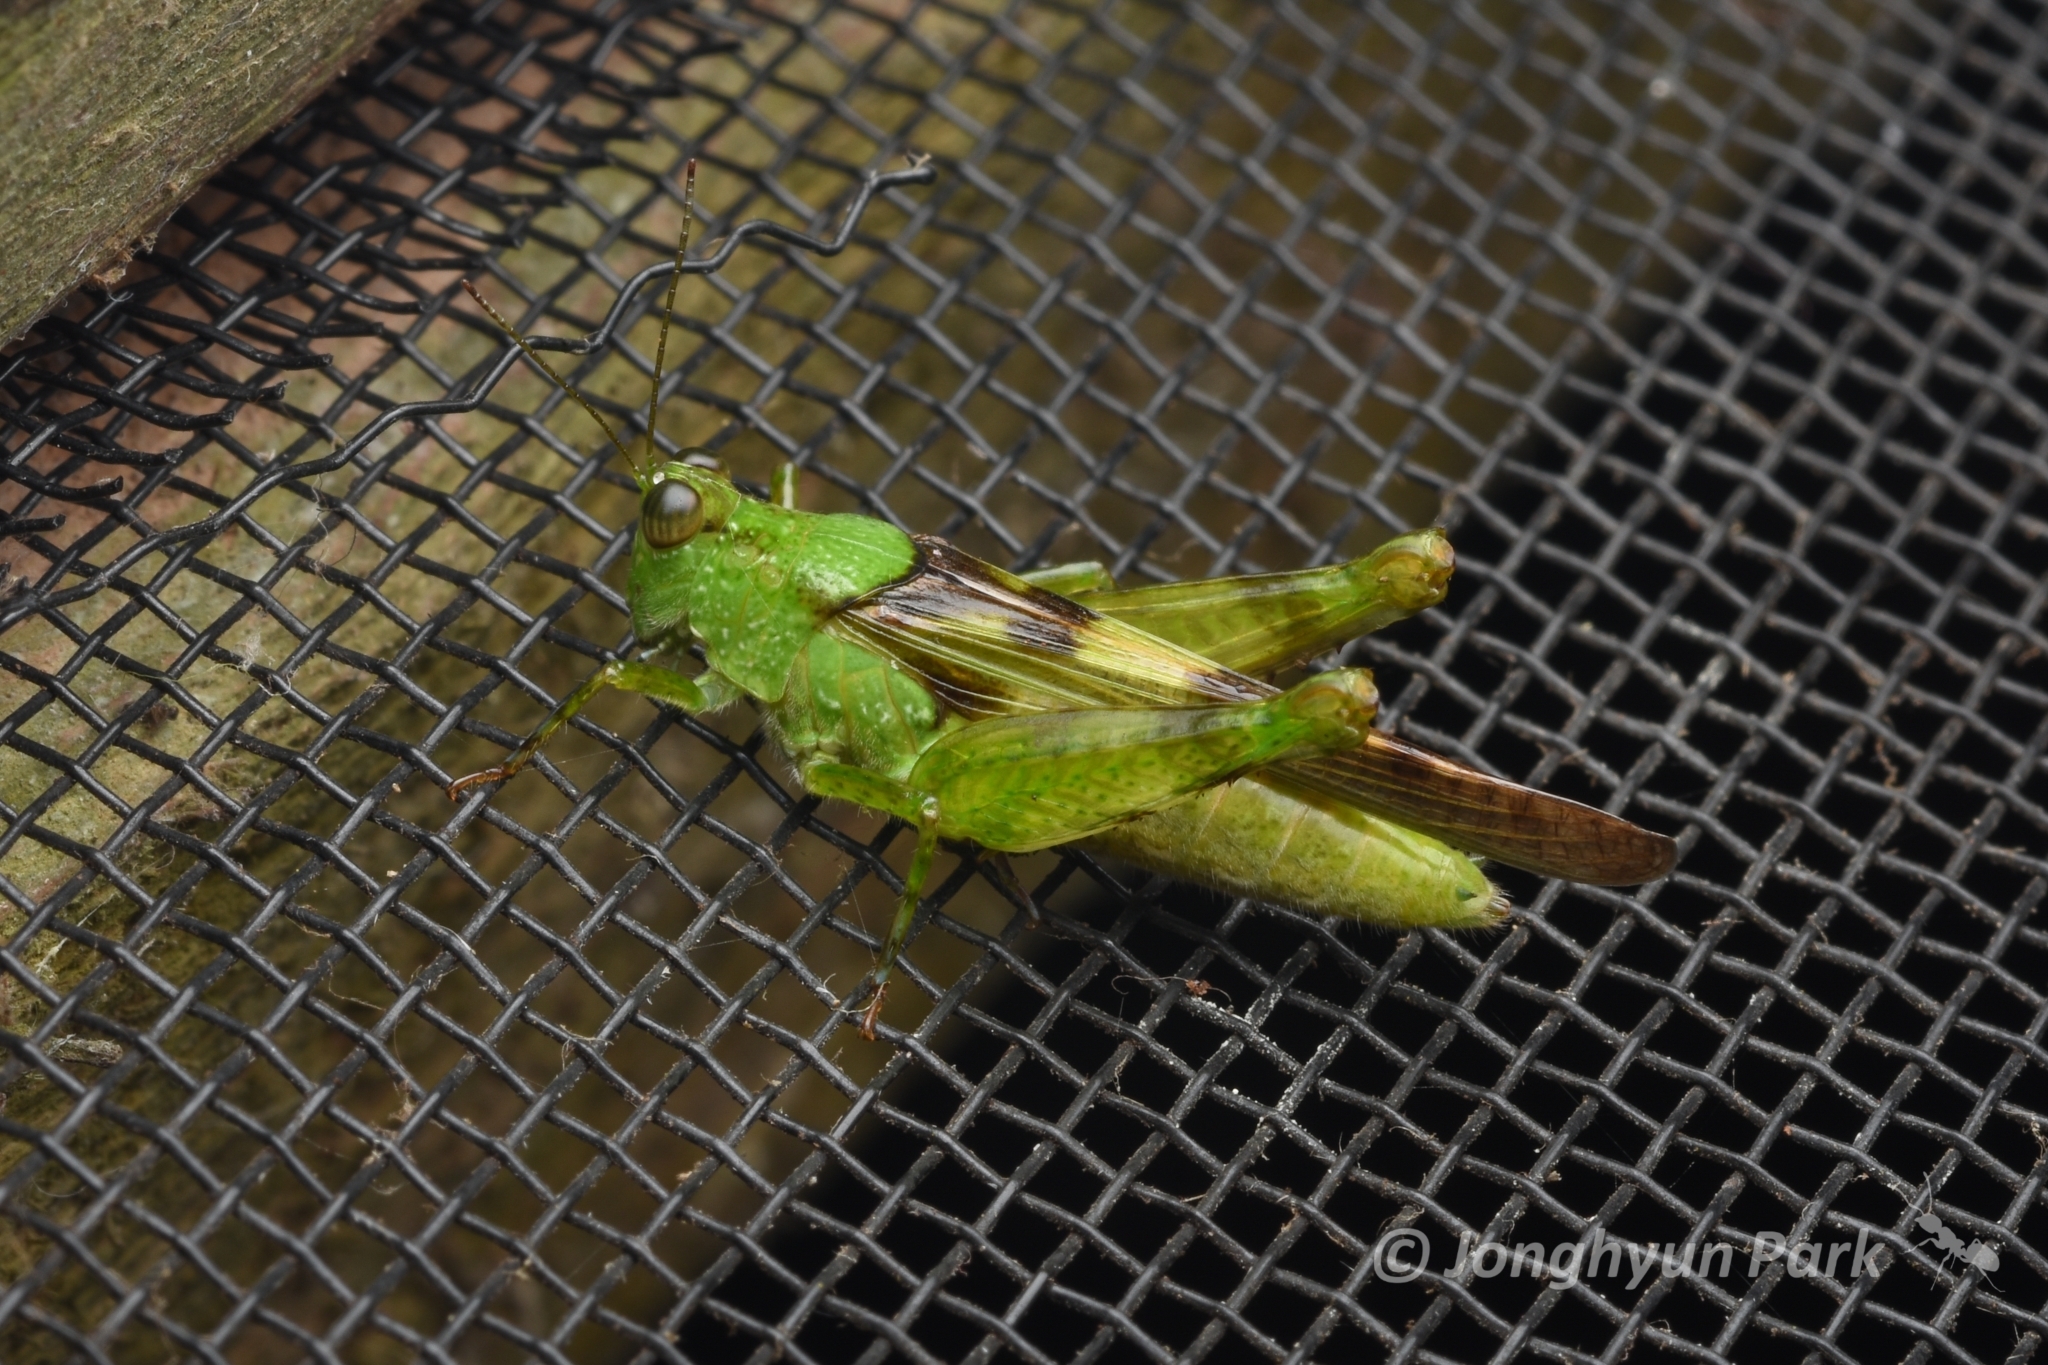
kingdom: Animalia
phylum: Arthropoda
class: Insecta
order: Orthoptera
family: Acrididae
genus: Paulinia
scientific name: Paulinia acuminata
